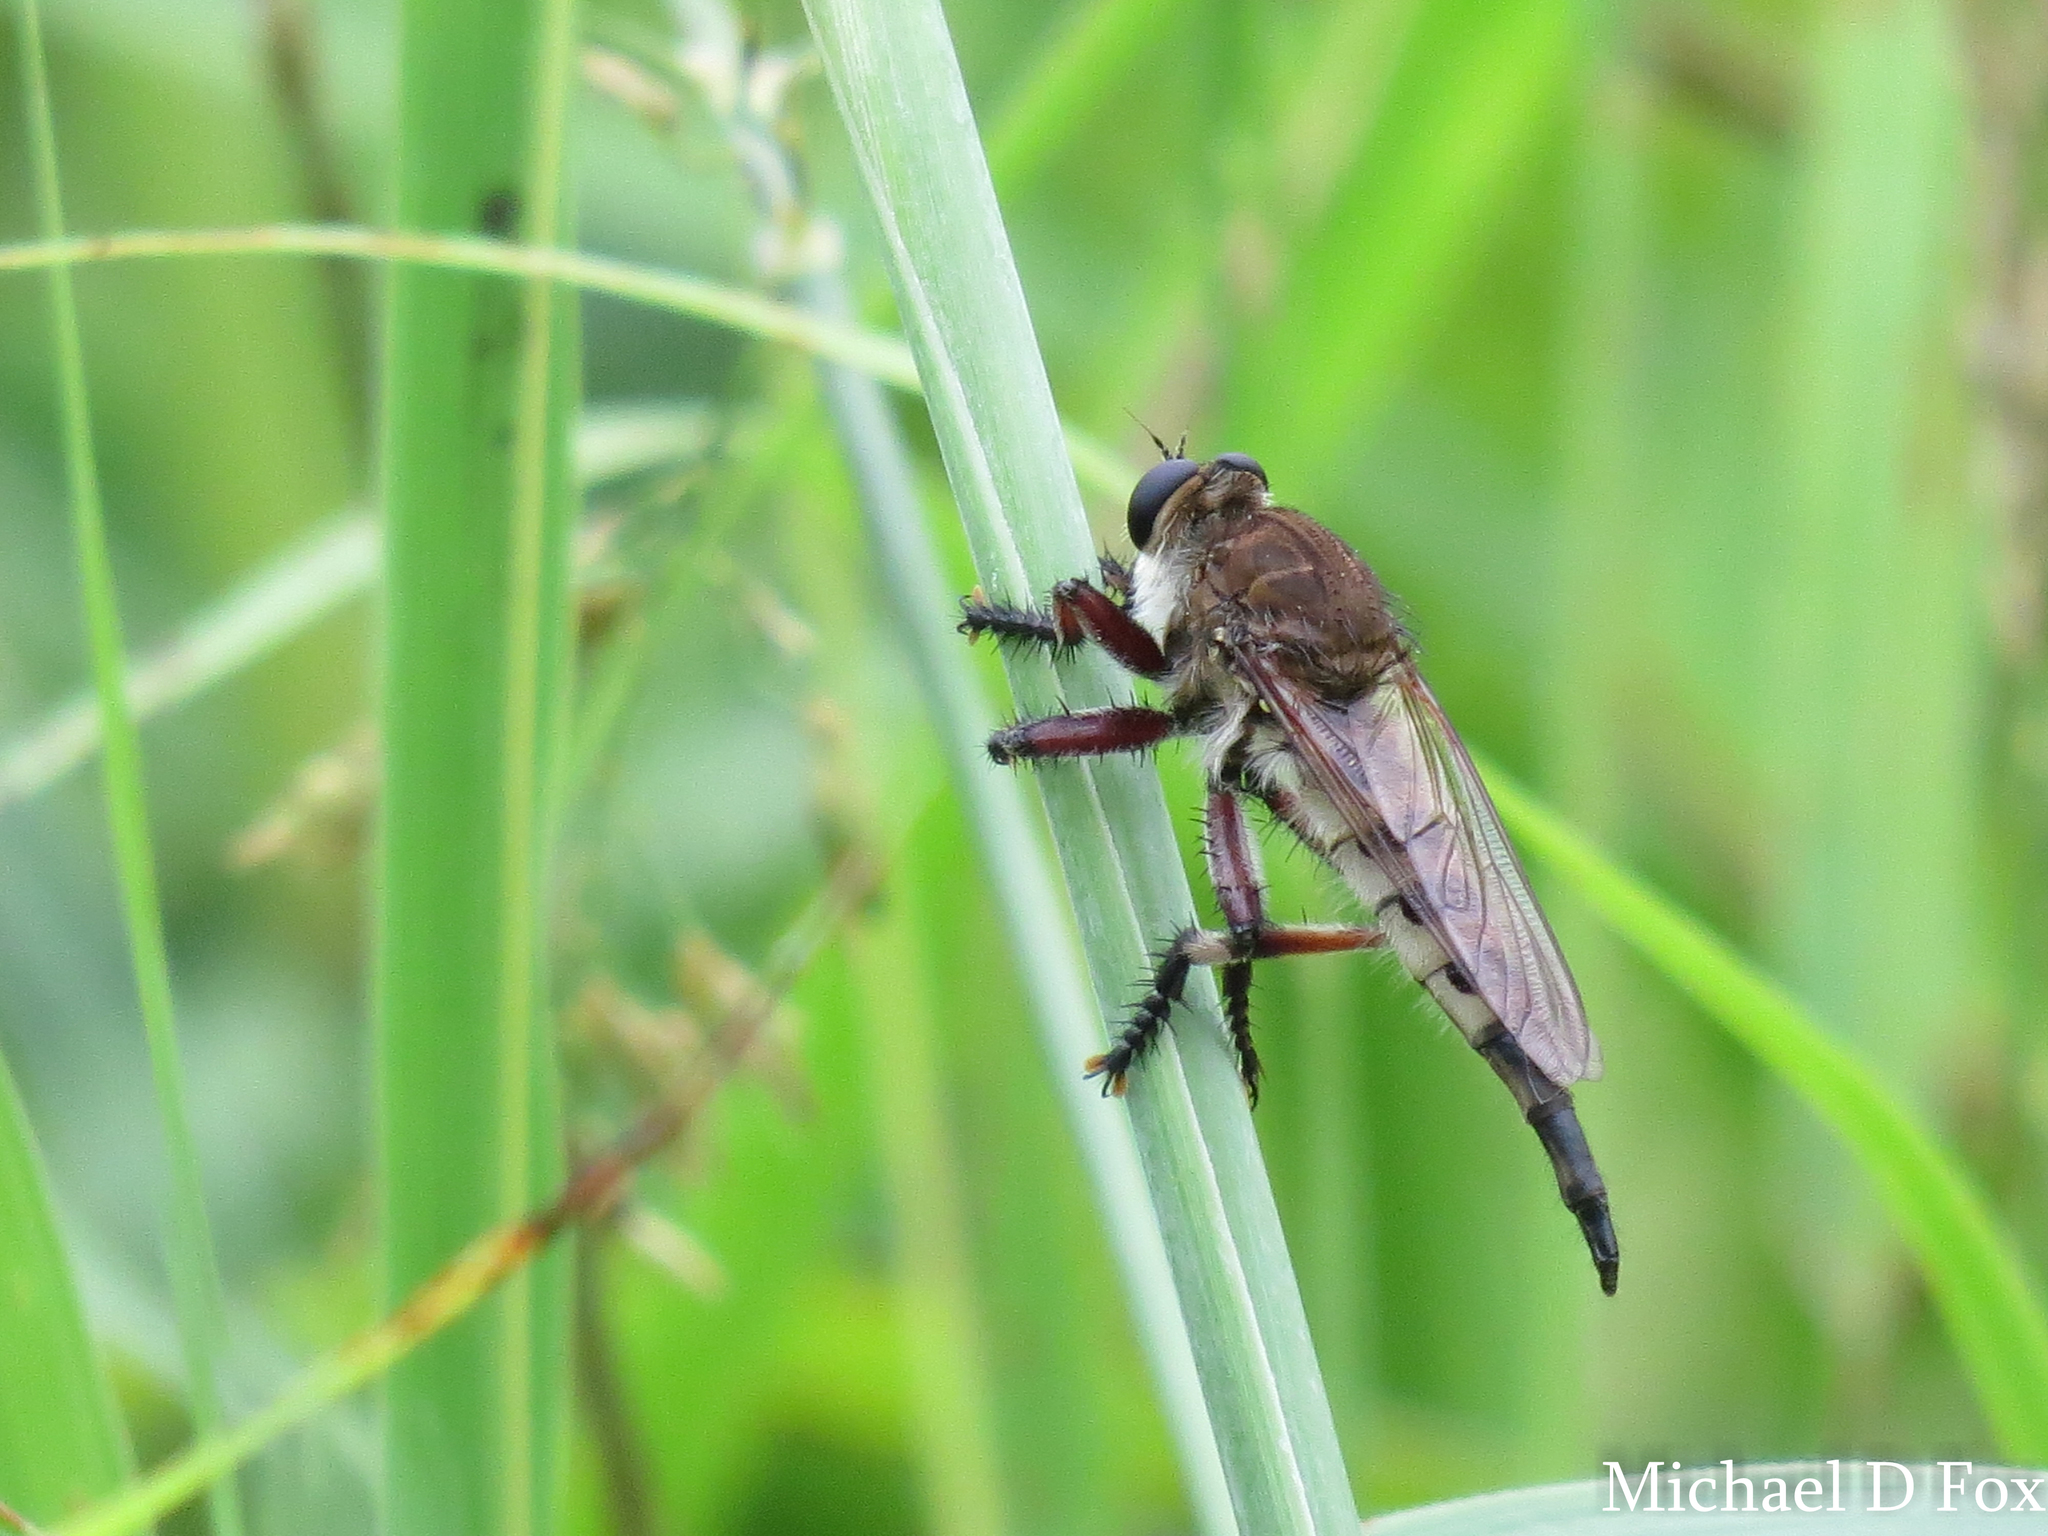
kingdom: Animalia
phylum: Arthropoda
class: Insecta
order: Diptera
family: Asilidae
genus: Promachus
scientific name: Promachus hinei
